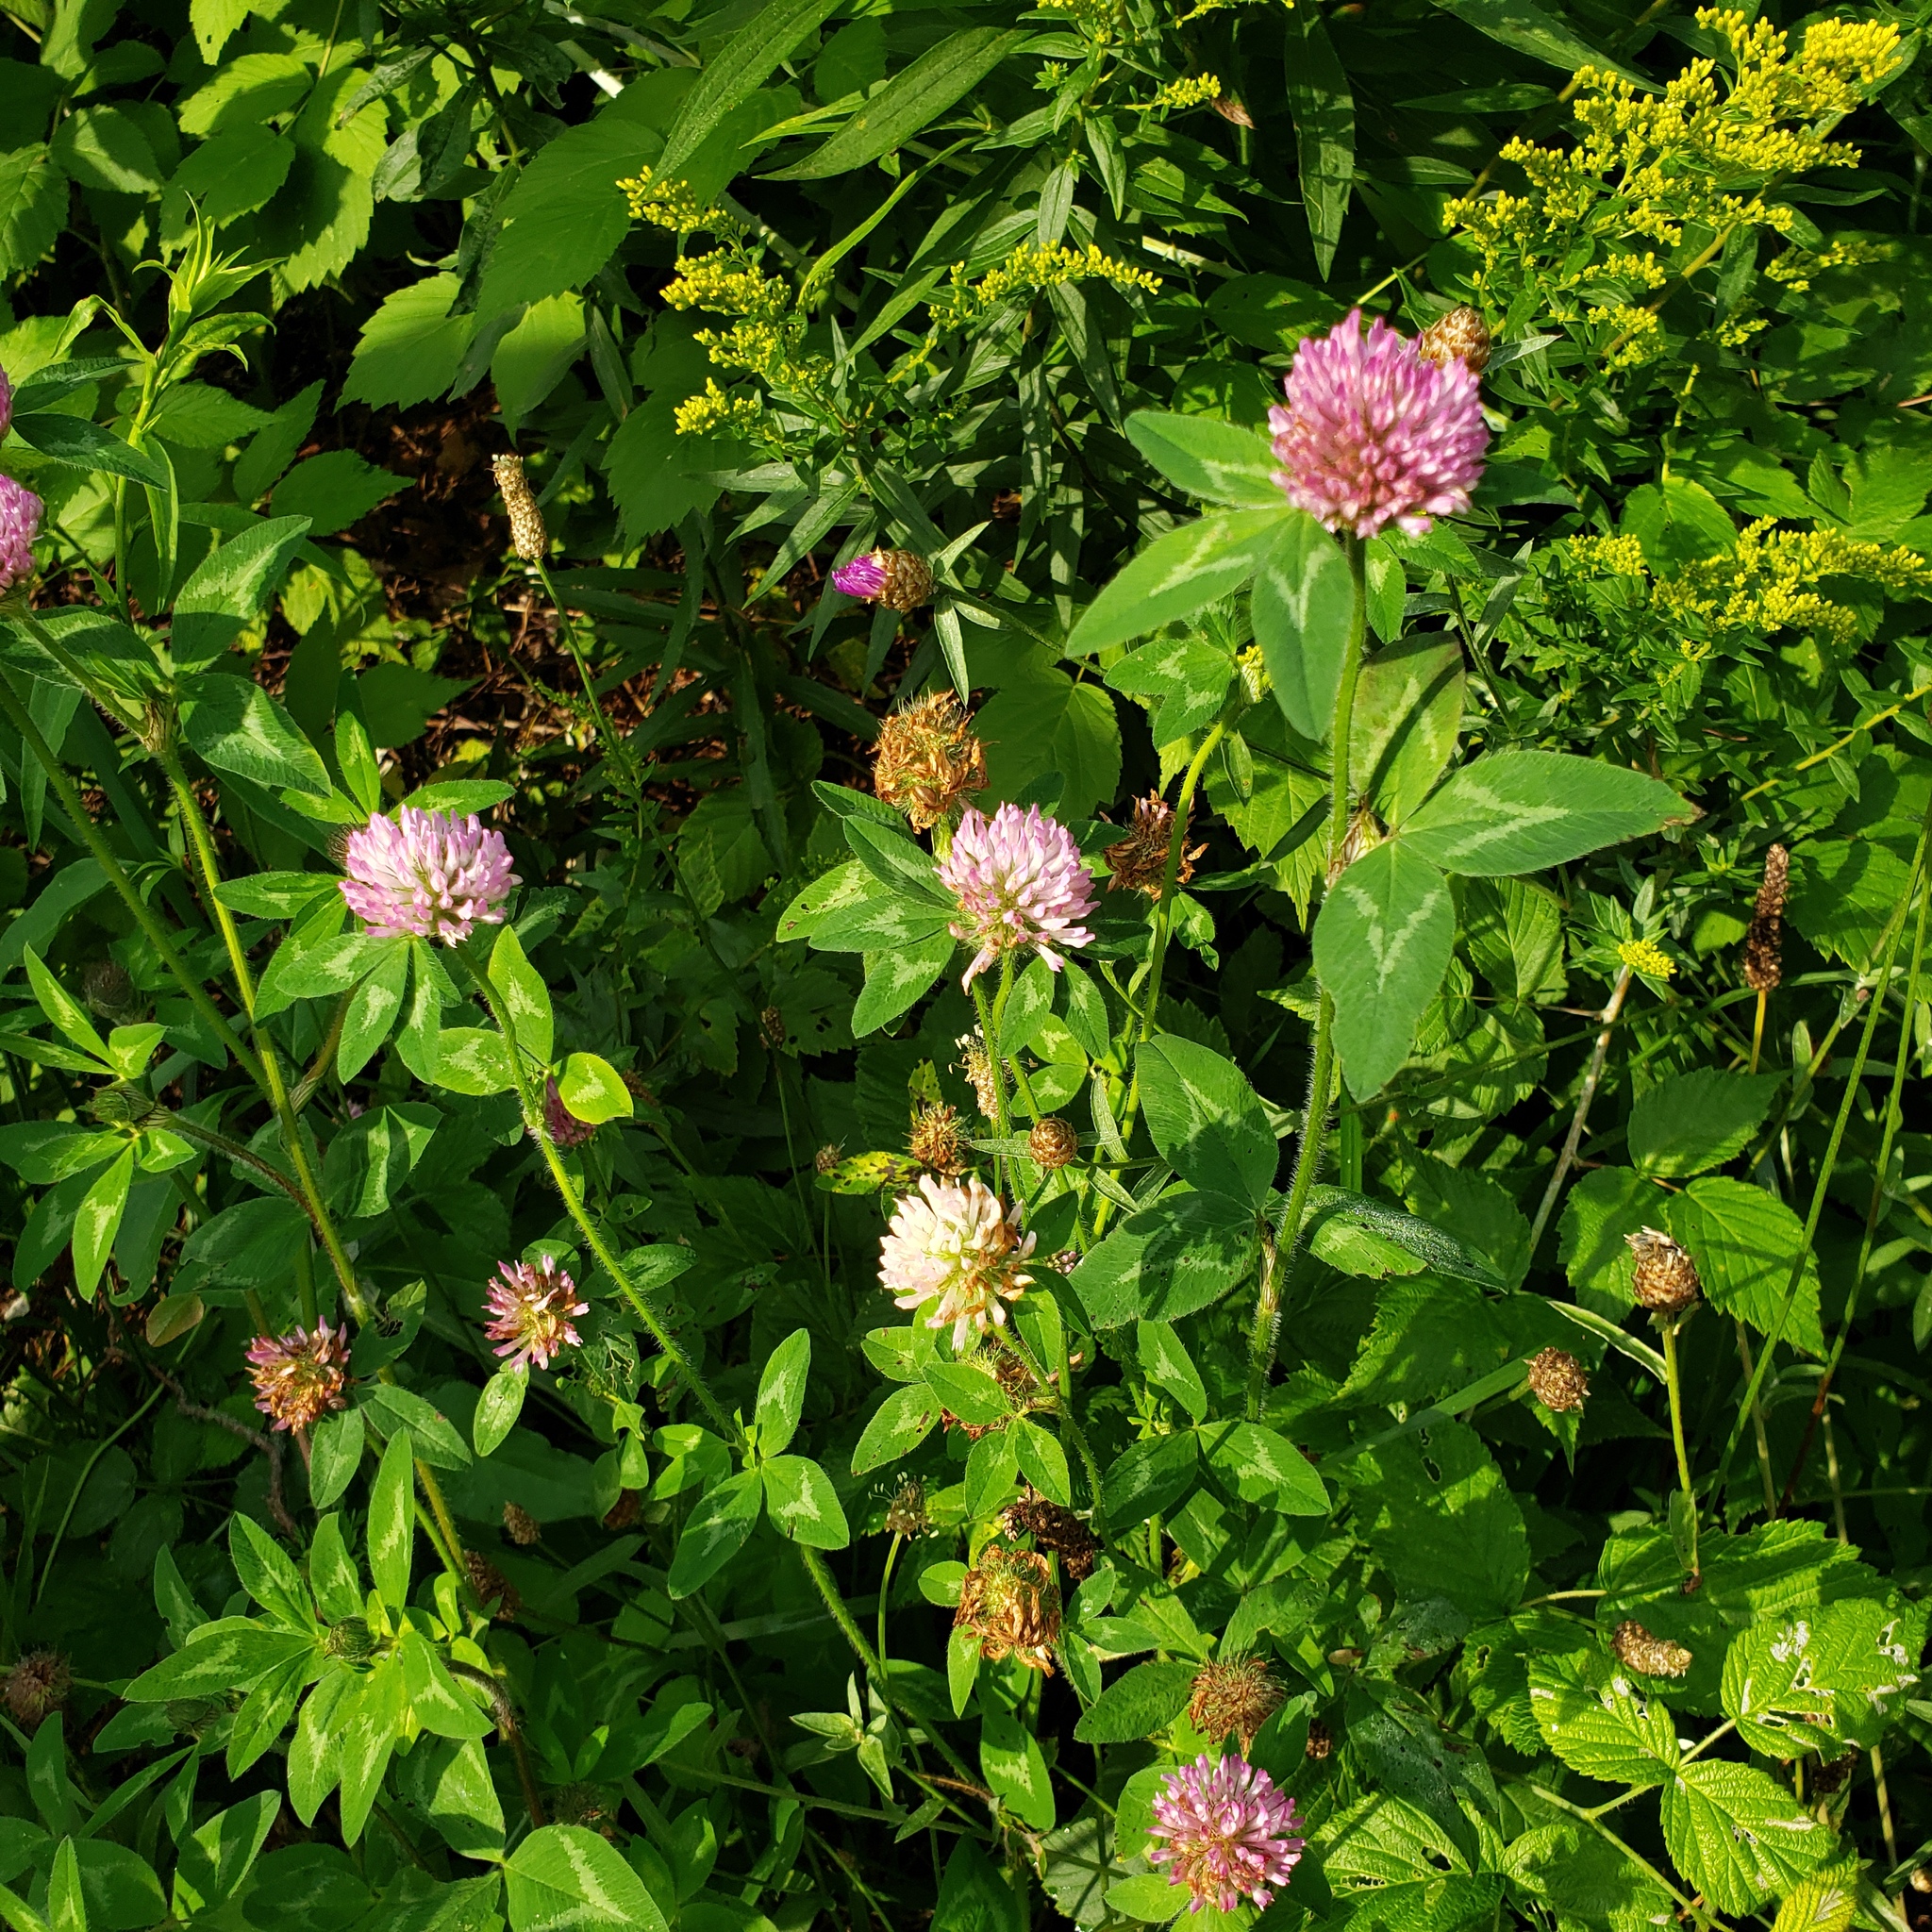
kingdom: Plantae
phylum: Tracheophyta
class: Magnoliopsida
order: Fabales
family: Fabaceae
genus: Trifolium
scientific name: Trifolium pratense
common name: Red clover
